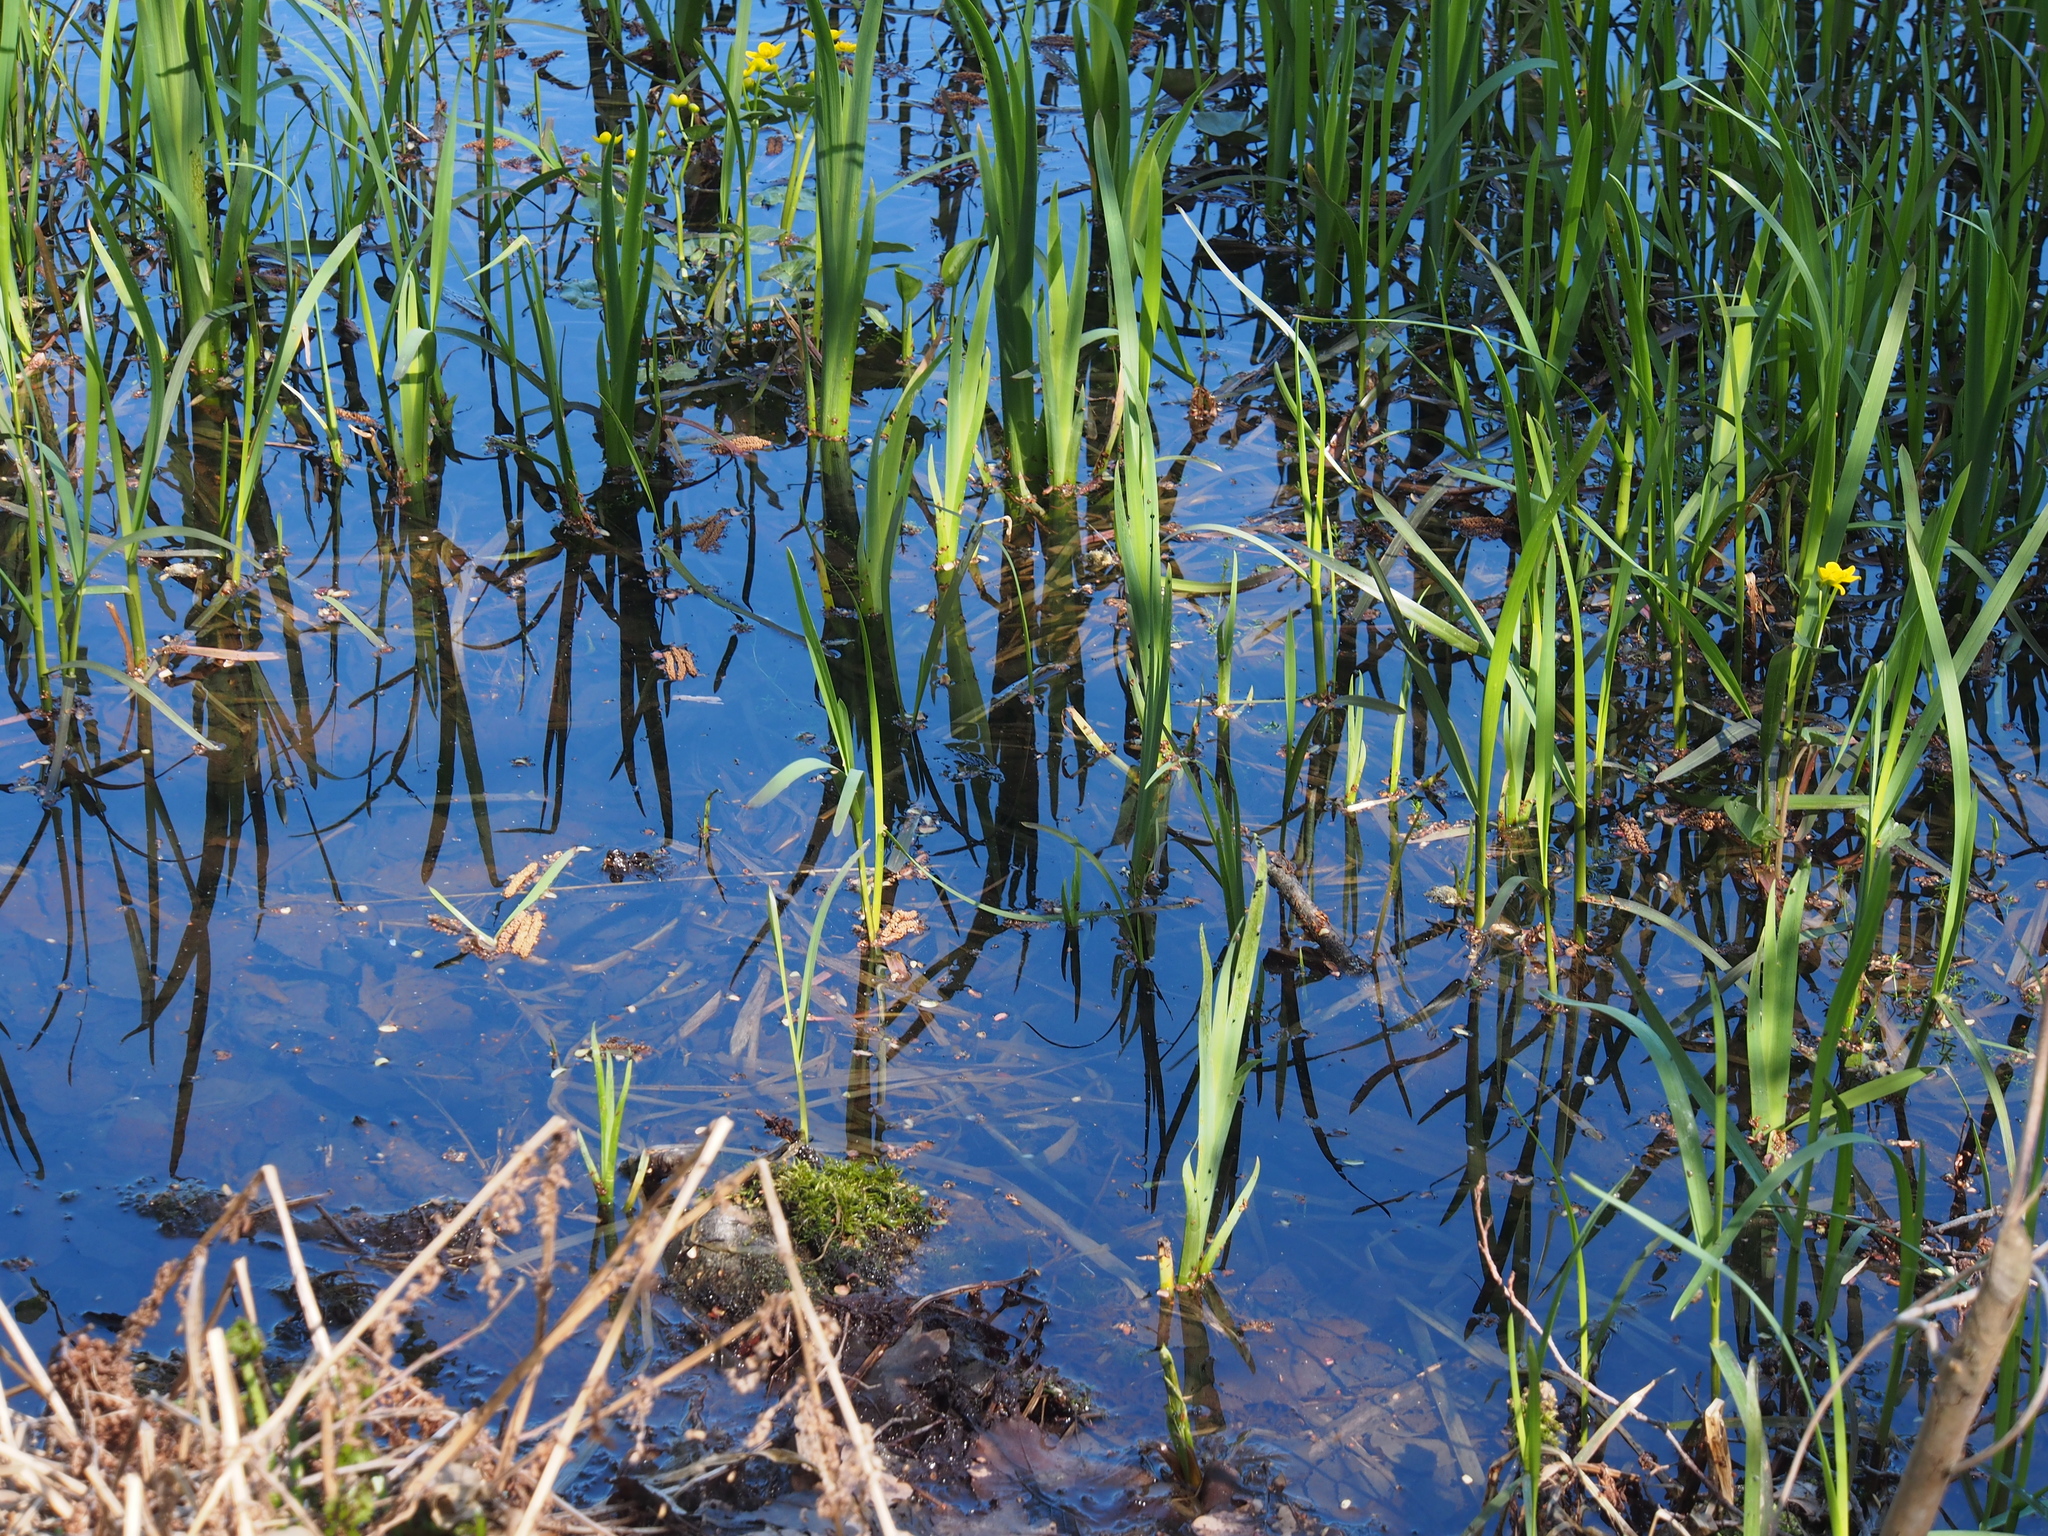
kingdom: Plantae
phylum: Tracheophyta
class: Liliopsida
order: Asparagales
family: Iridaceae
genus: Iris
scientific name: Iris pseudacorus
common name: Yellow flag
